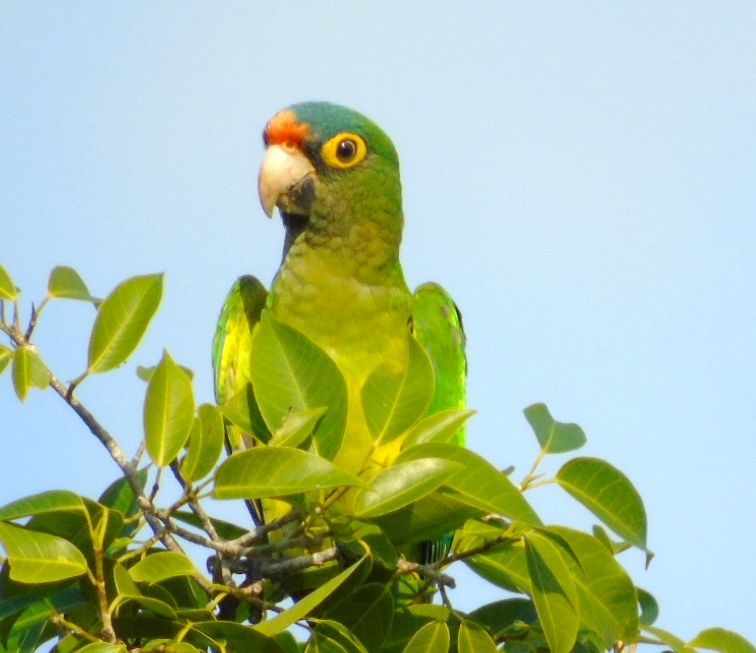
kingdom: Animalia
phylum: Chordata
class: Aves
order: Psittaciformes
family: Psittacidae
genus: Aratinga
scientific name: Aratinga canicularis
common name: Orange-fronted parakeet
